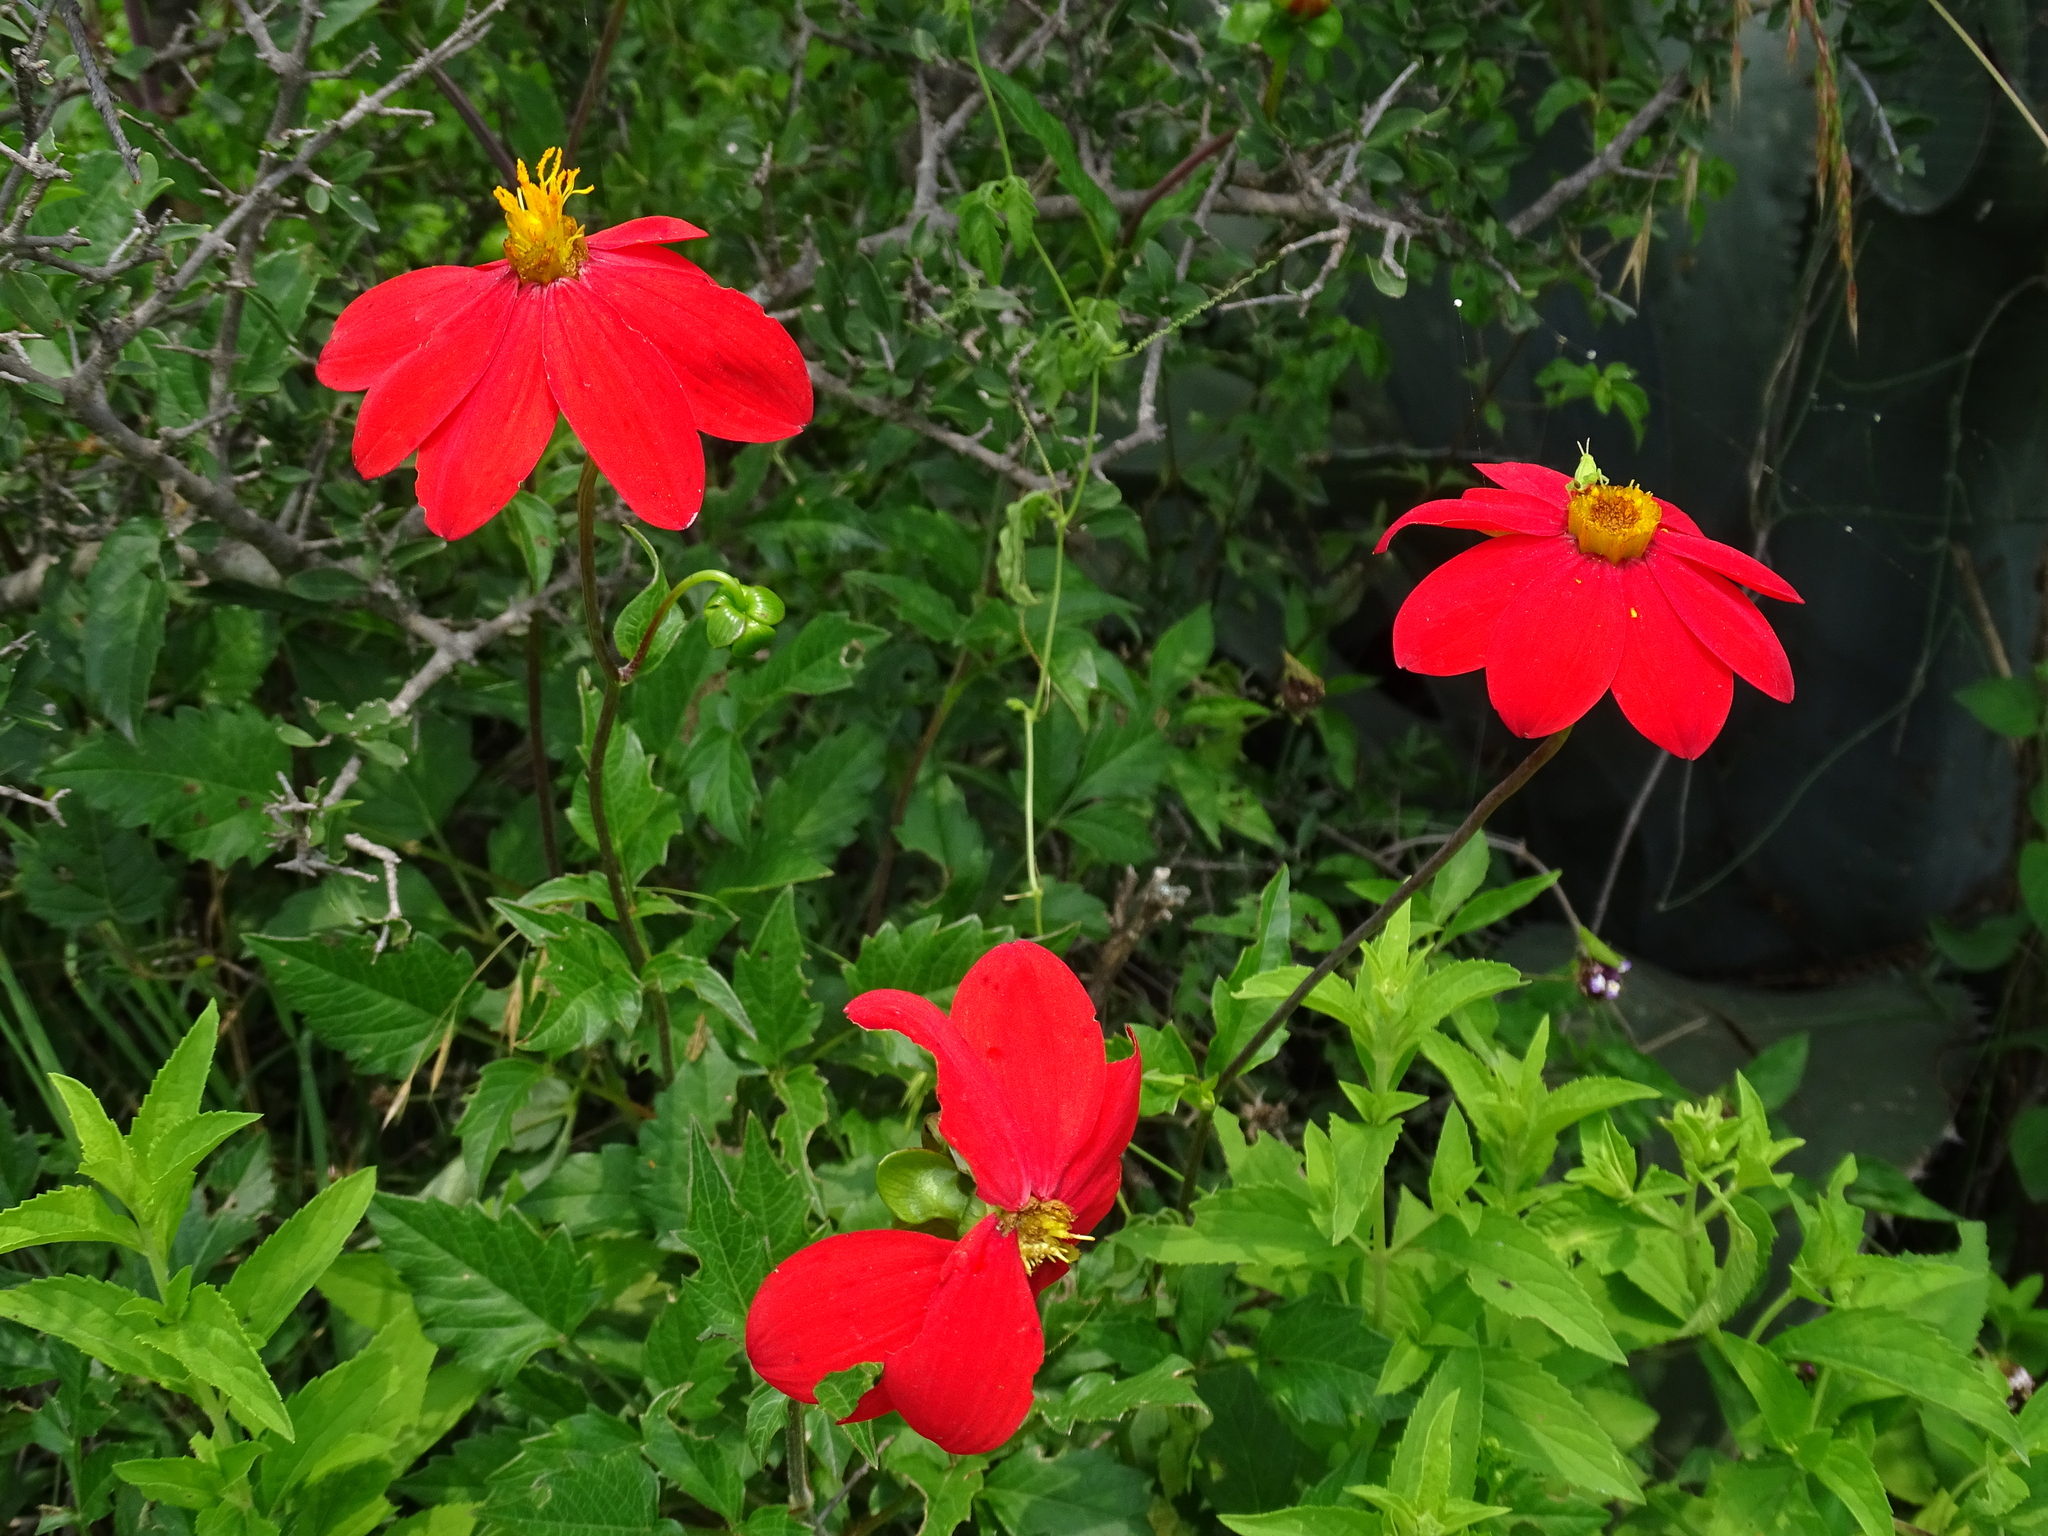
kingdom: Plantae
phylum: Tracheophyta
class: Magnoliopsida
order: Asterales
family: Asteraceae
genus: Dahlia
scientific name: Dahlia coccinea
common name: Red dahlia
